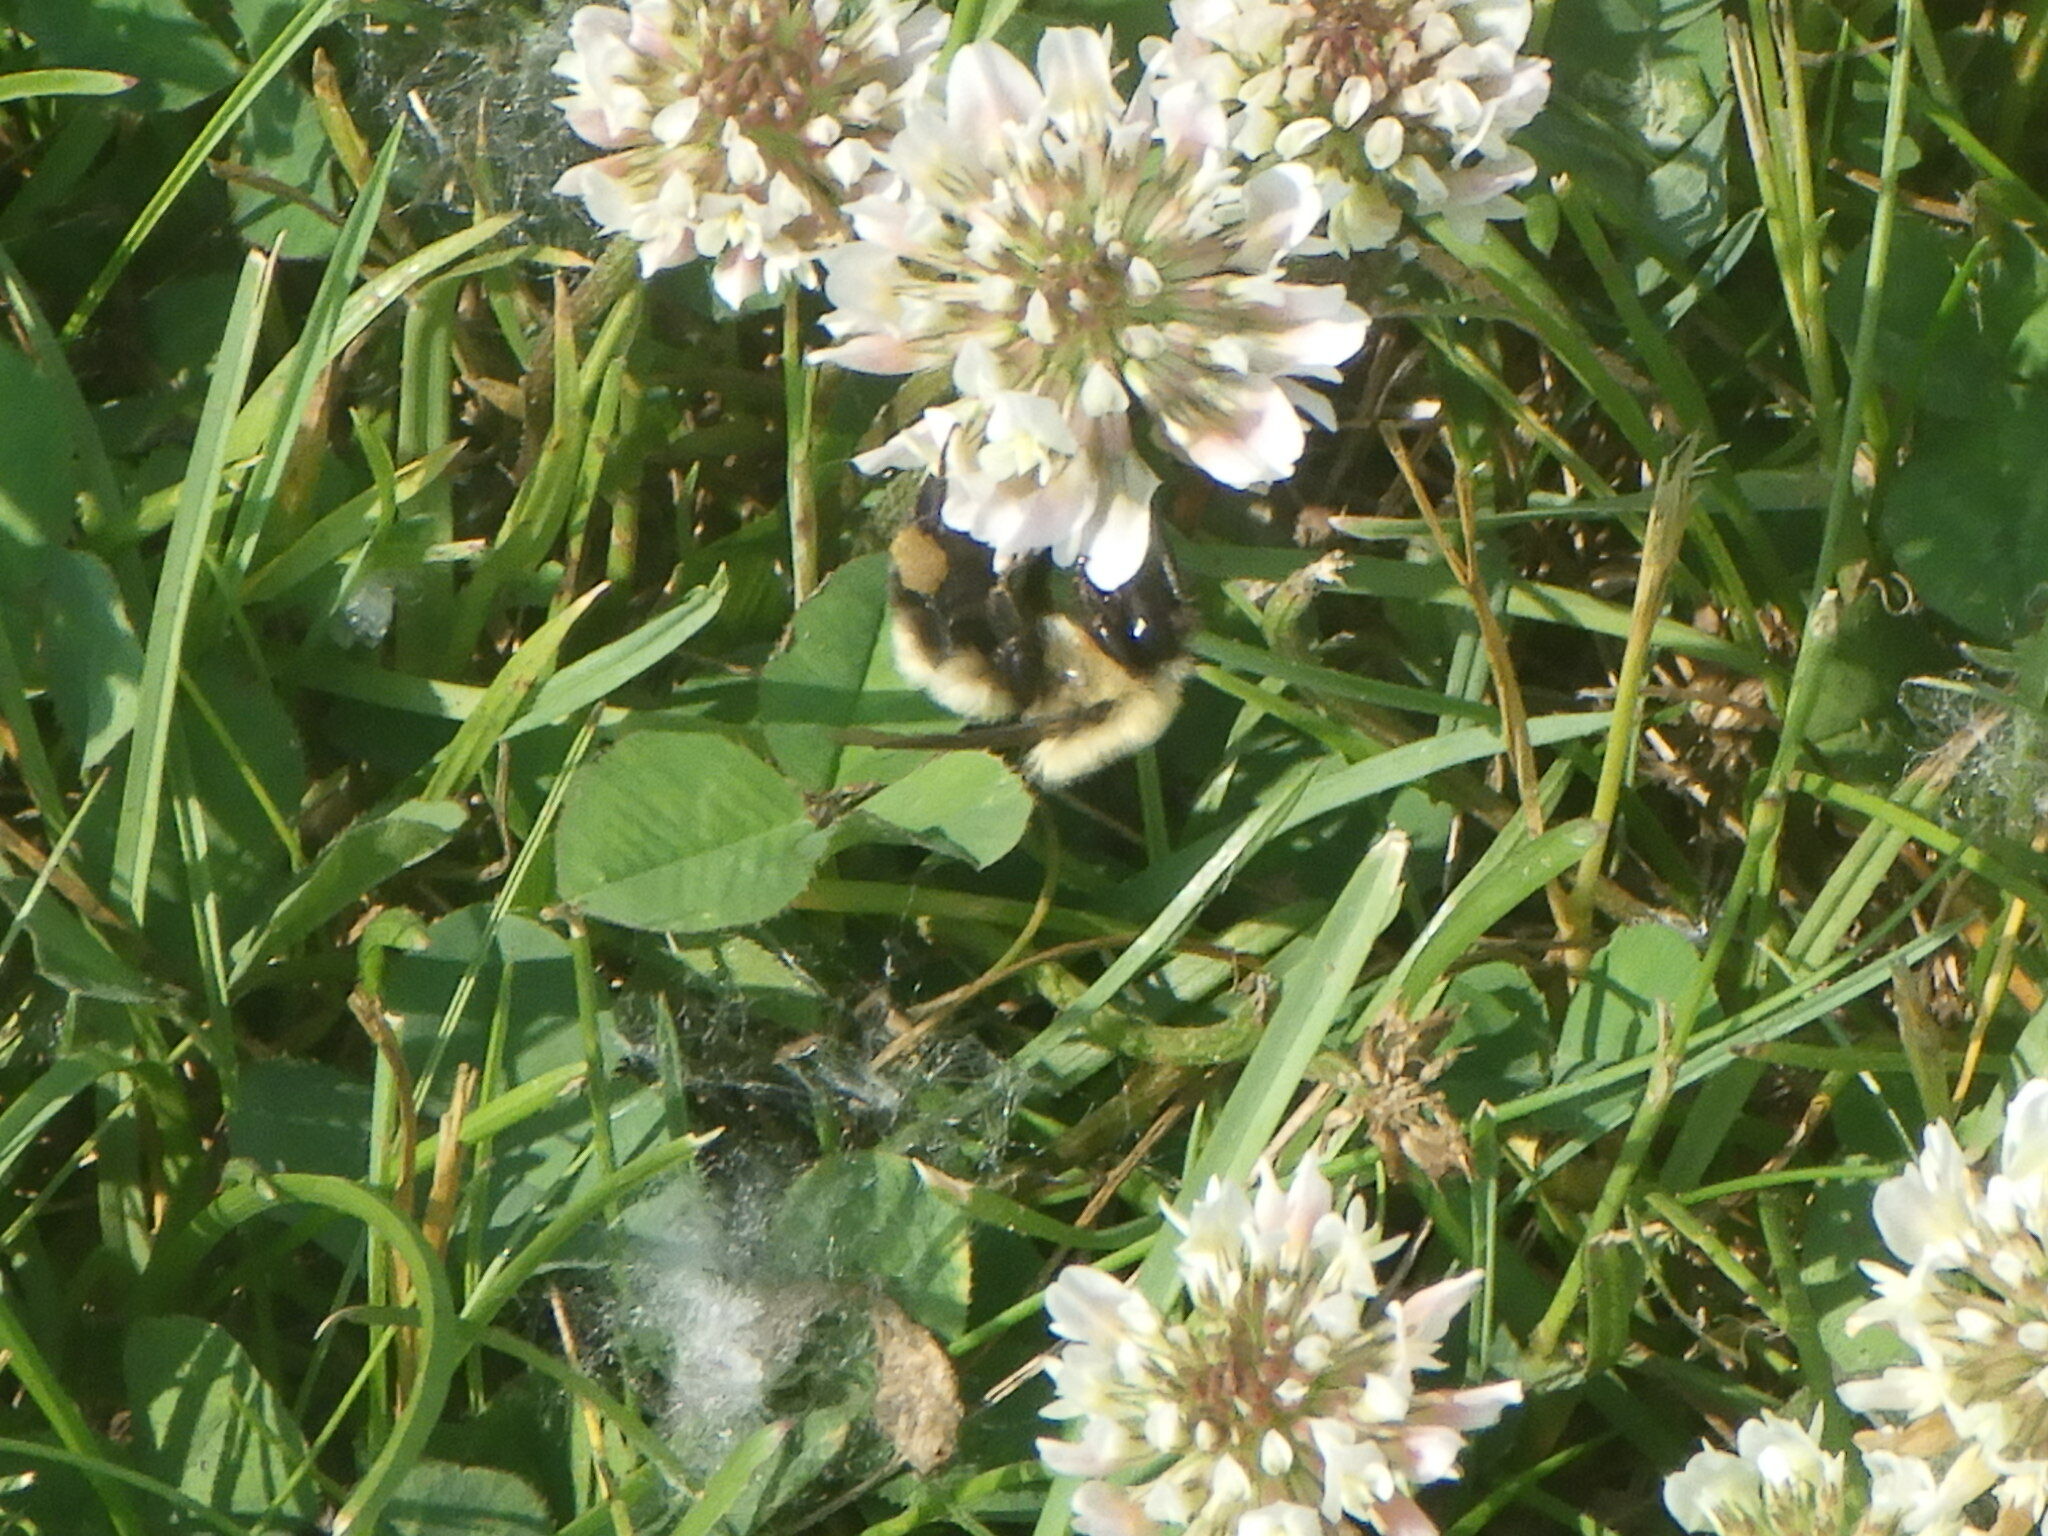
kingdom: Animalia
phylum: Arthropoda
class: Insecta
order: Hymenoptera
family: Apidae
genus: Bombus
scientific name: Bombus bimaculatus
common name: Two-spotted bumble bee
